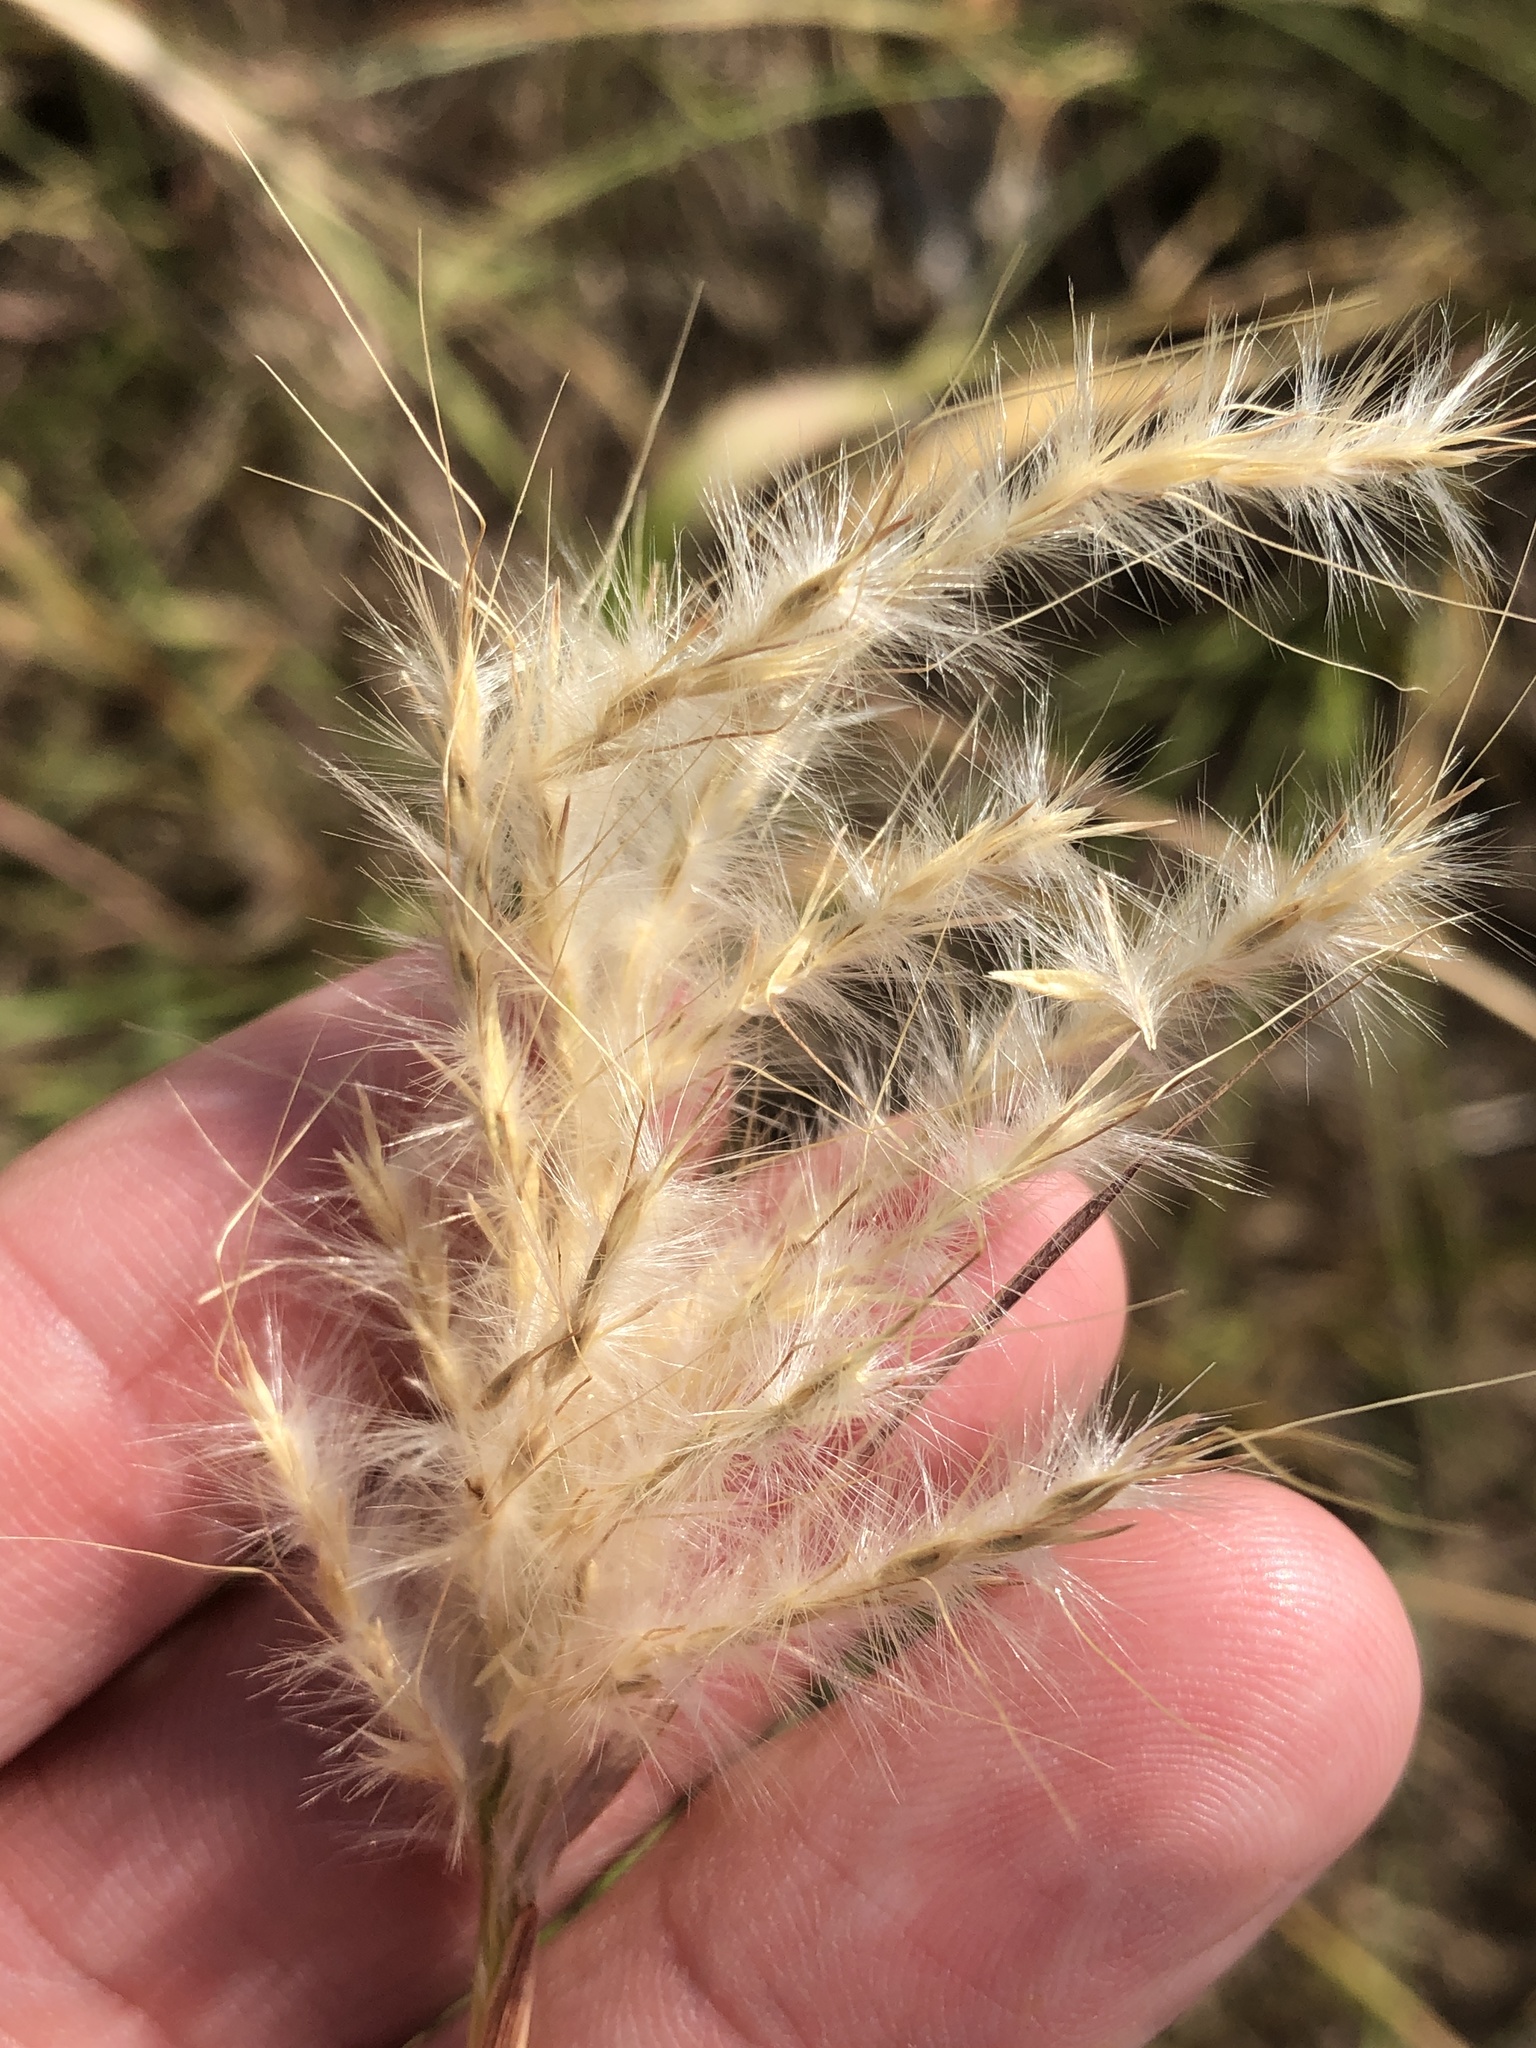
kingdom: Plantae
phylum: Tracheophyta
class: Liliopsida
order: Poales
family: Poaceae
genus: Bothriochloa
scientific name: Bothriochloa torreyana
